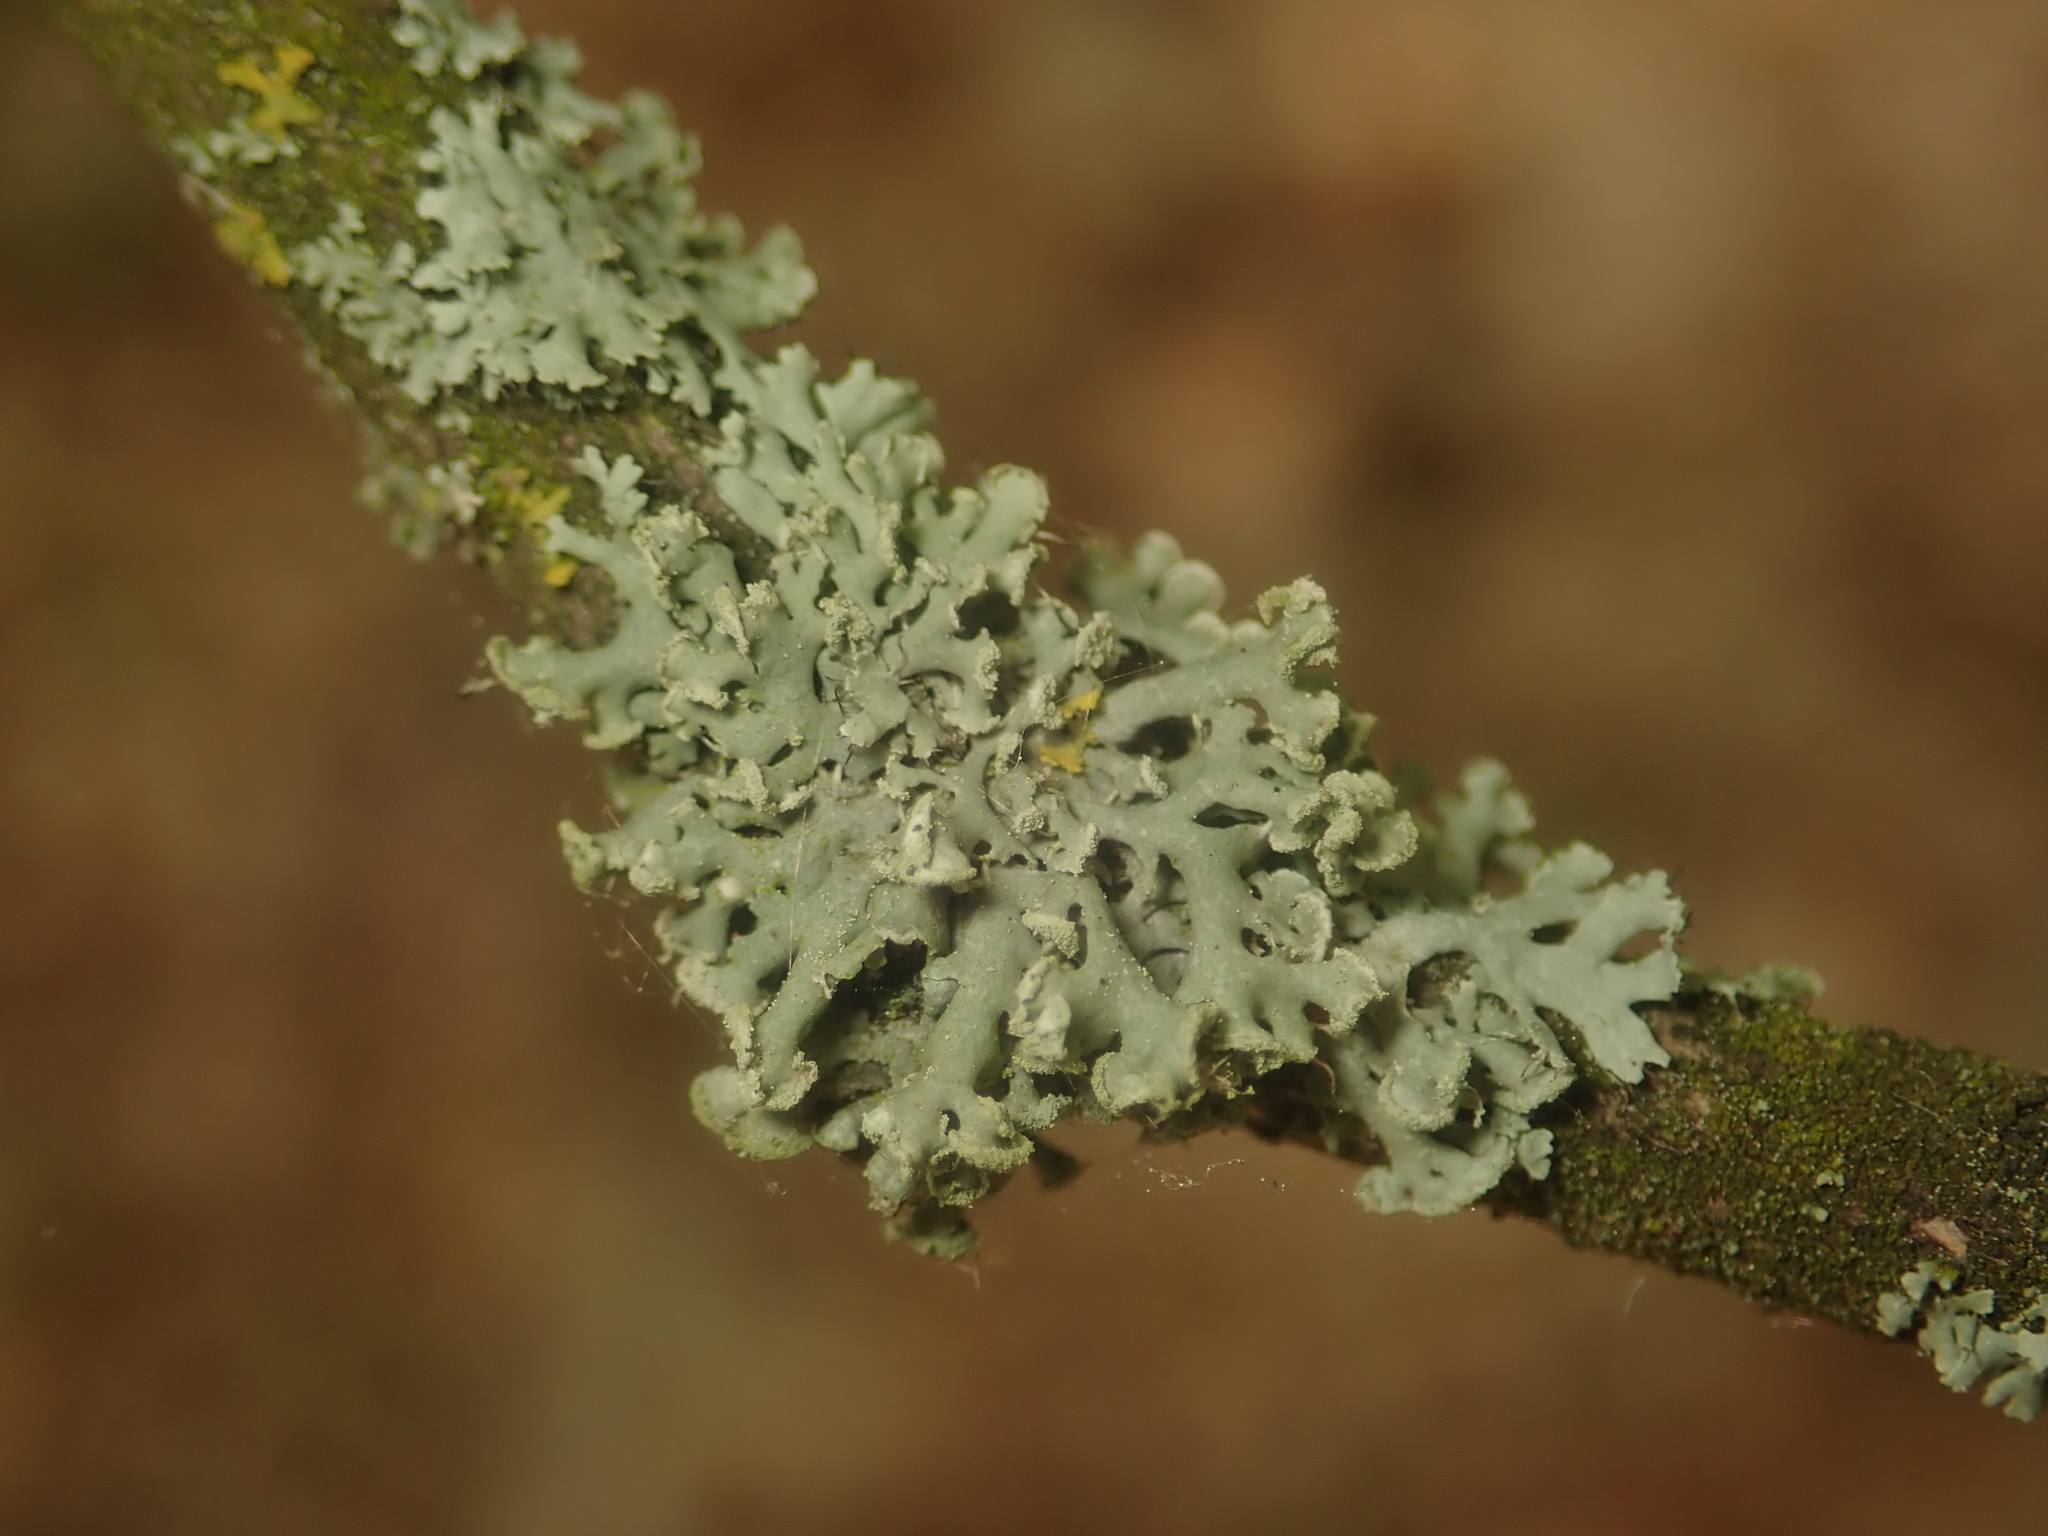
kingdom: Fungi
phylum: Ascomycota
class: Lecanoromycetes
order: Caliciales
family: Physciaceae
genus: Physcia
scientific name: Physcia tenella
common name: Fringed rosette lichen
